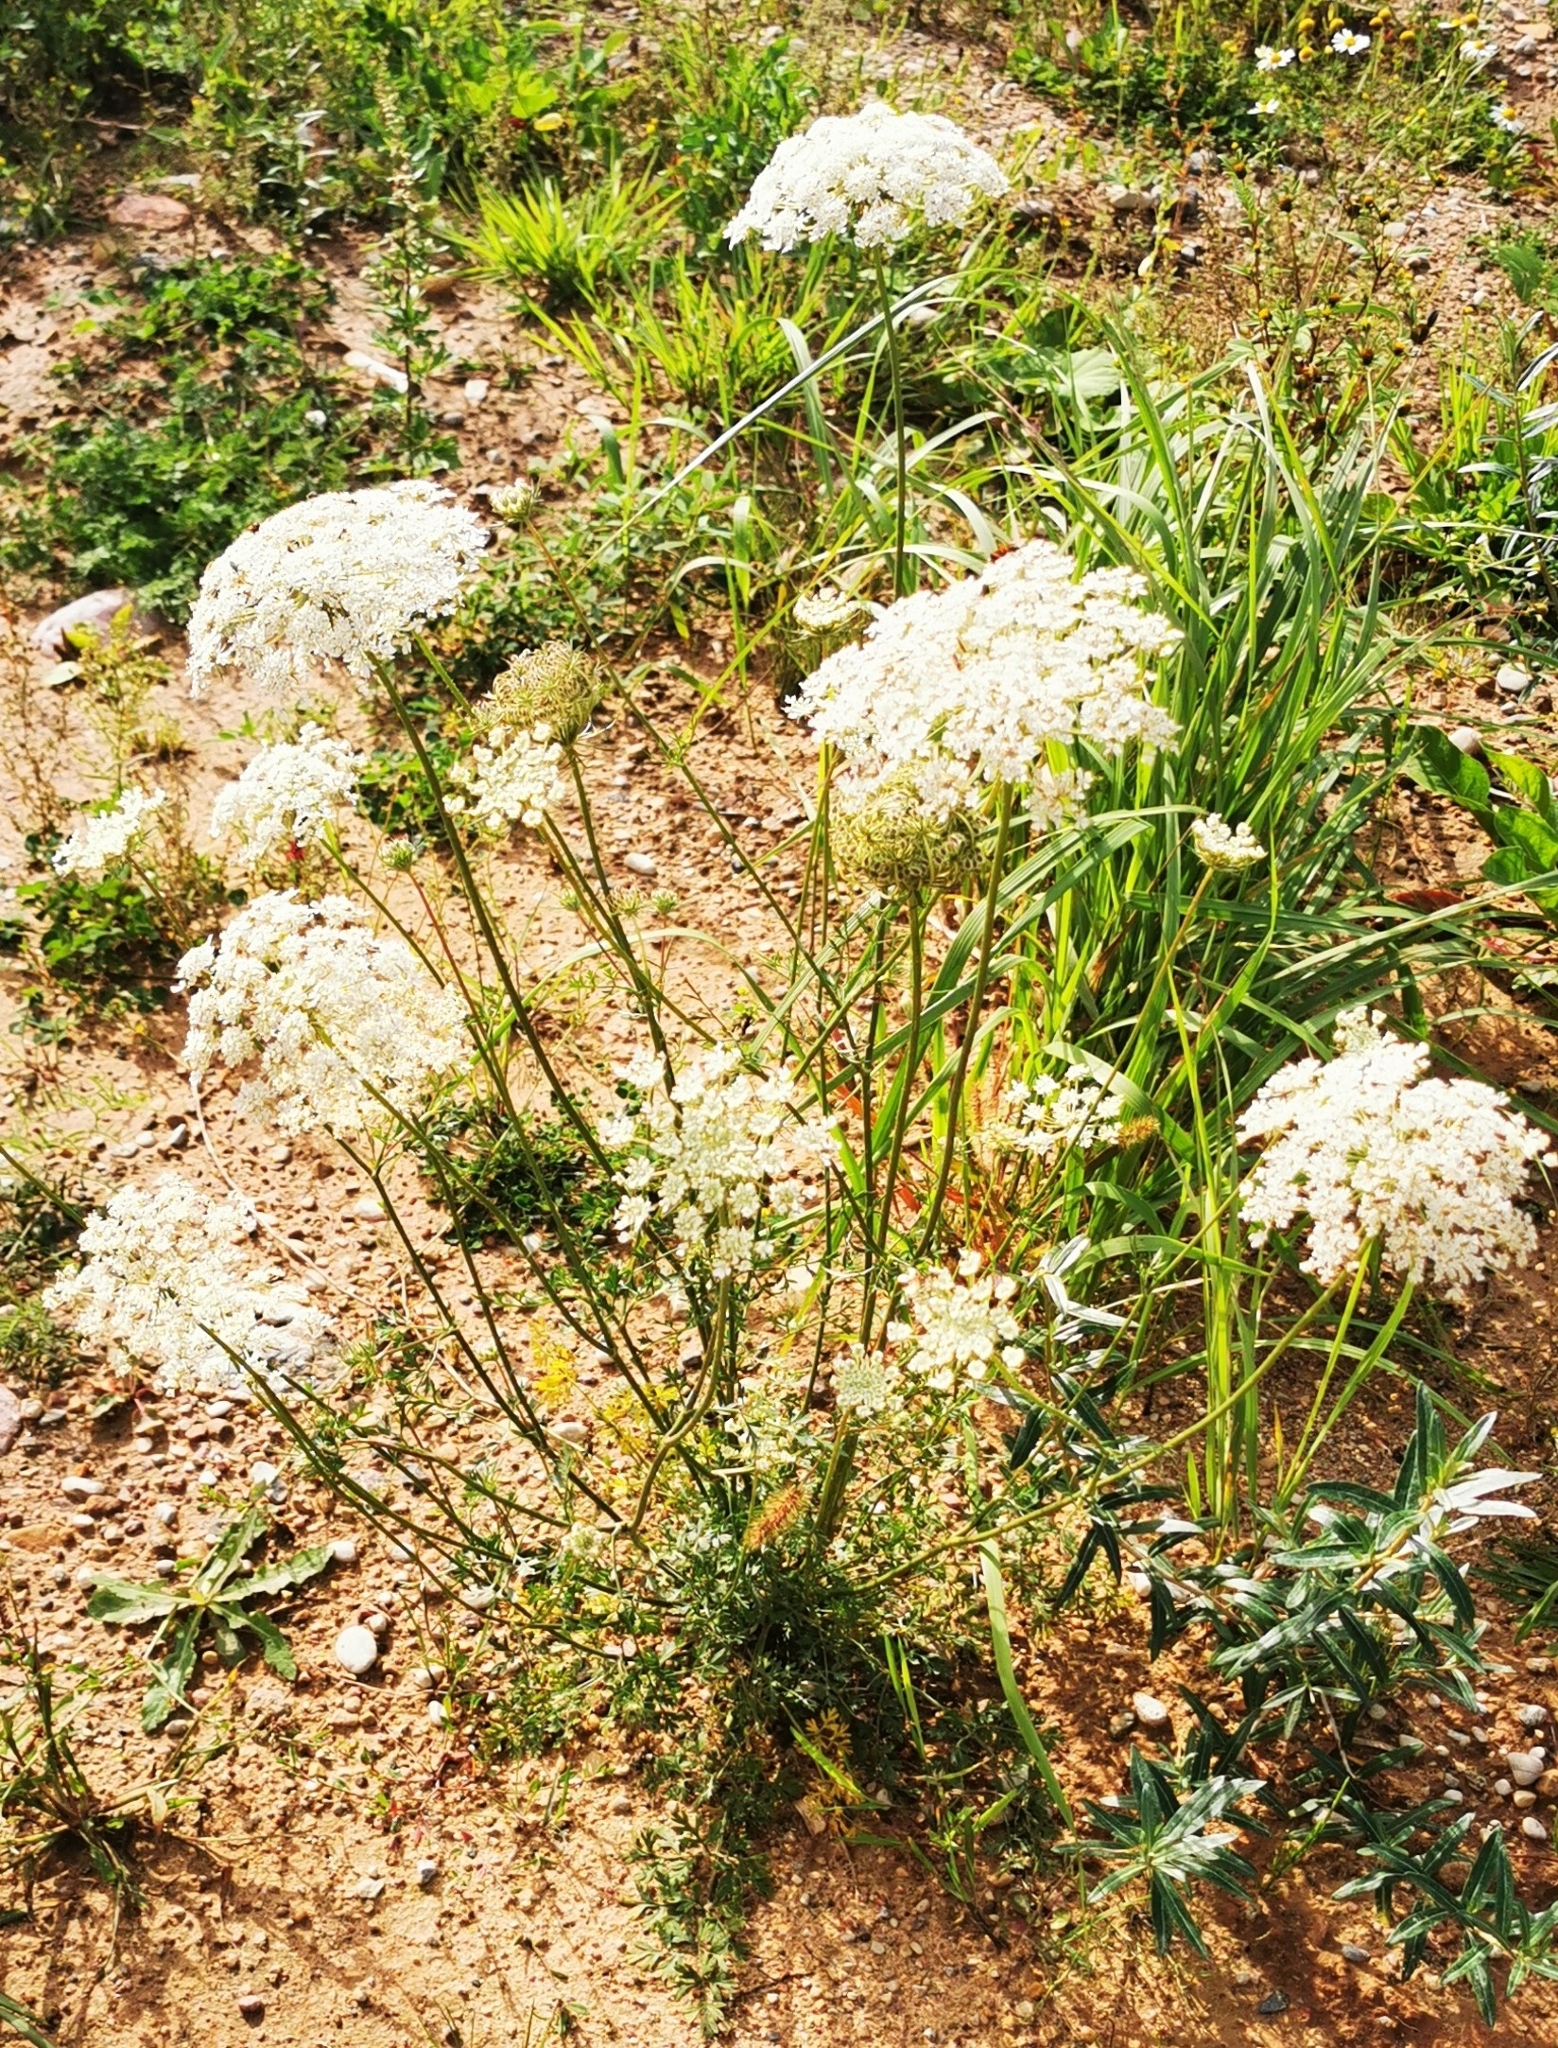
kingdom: Plantae
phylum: Tracheophyta
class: Magnoliopsida
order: Apiales
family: Apiaceae
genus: Daucus
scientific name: Daucus carota
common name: Wild carrot
